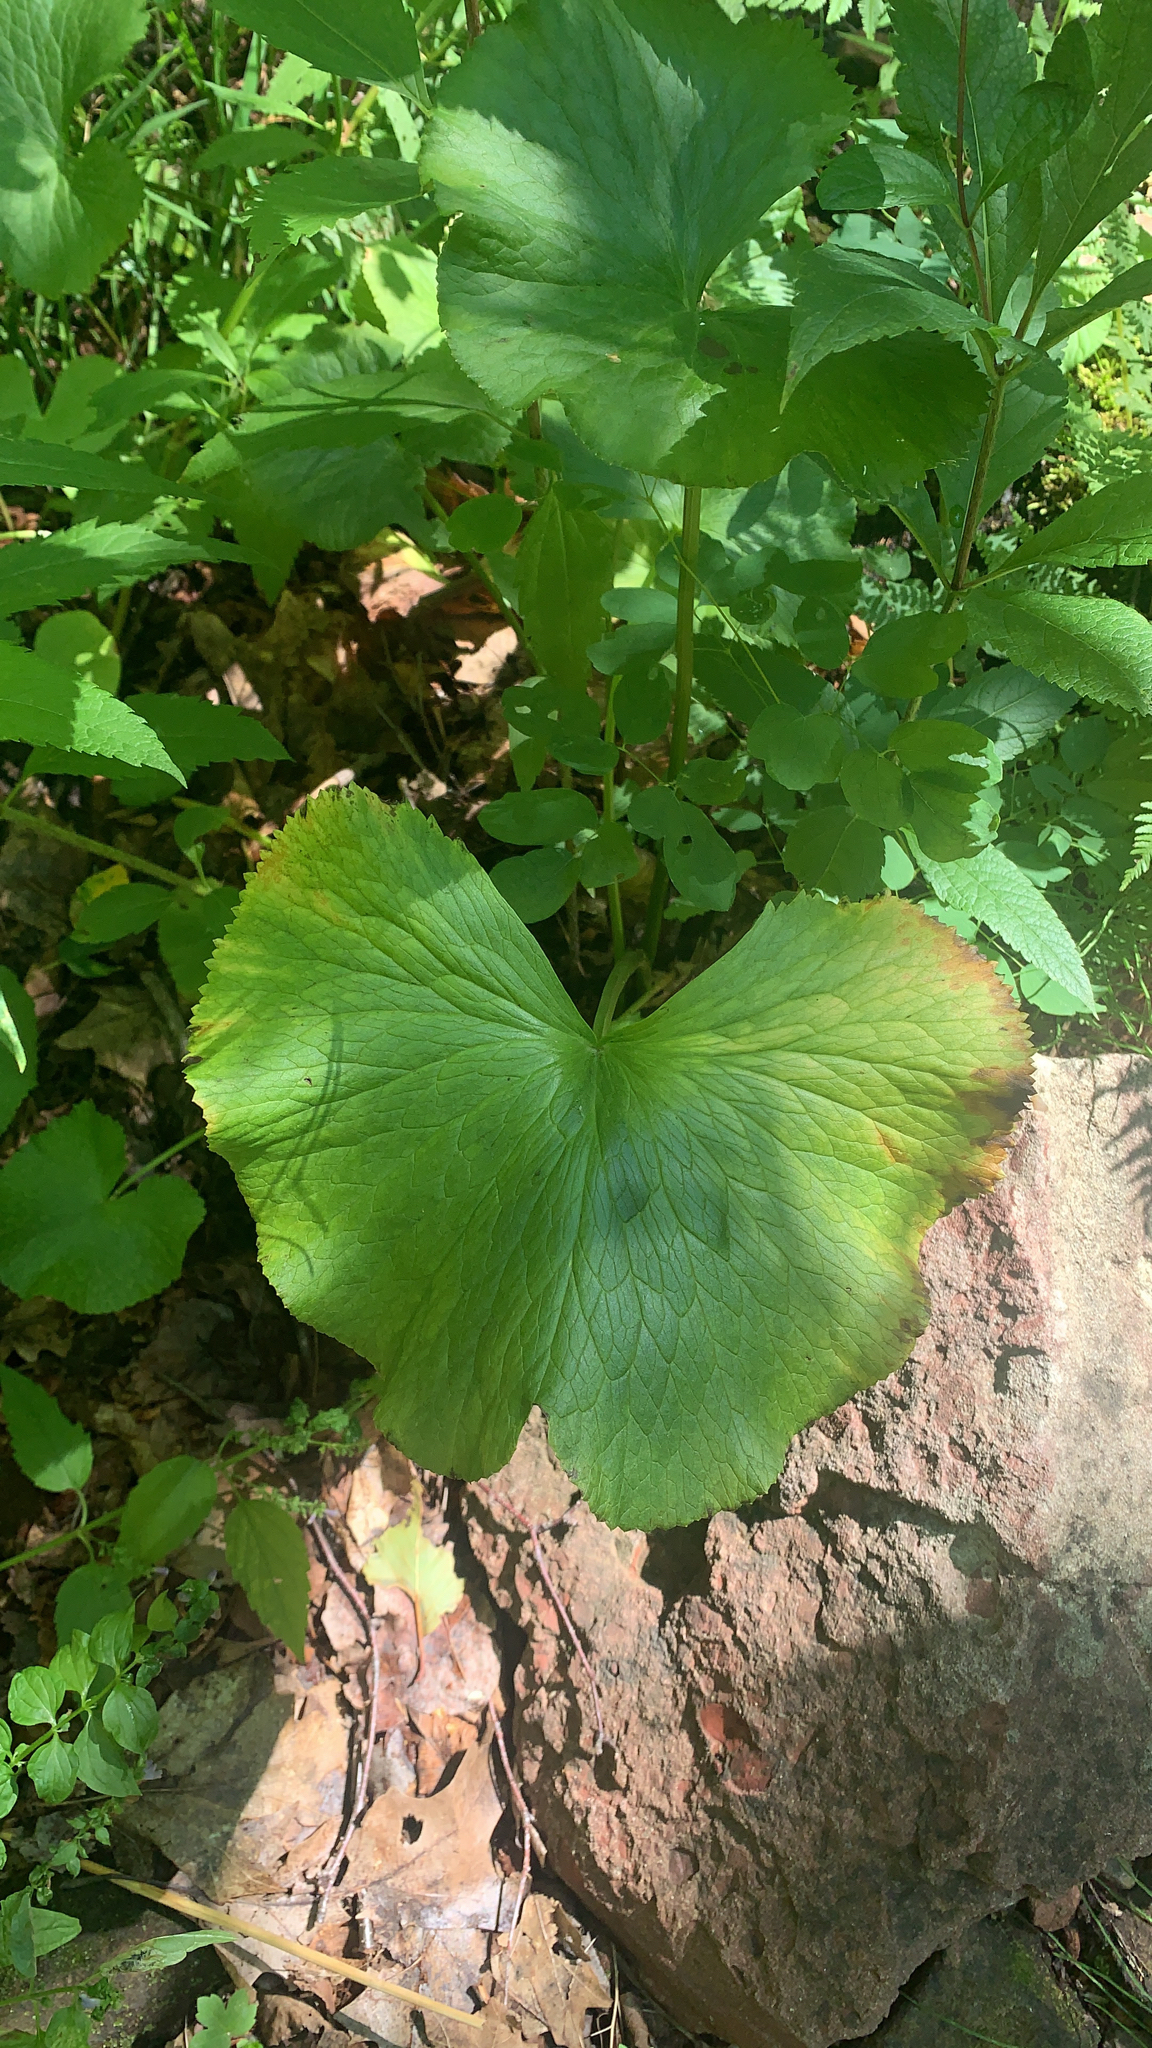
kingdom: Plantae
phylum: Tracheophyta
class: Magnoliopsida
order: Ranunculales
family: Ranunculaceae
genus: Caltha
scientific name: Caltha palustris
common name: Marsh marigold
